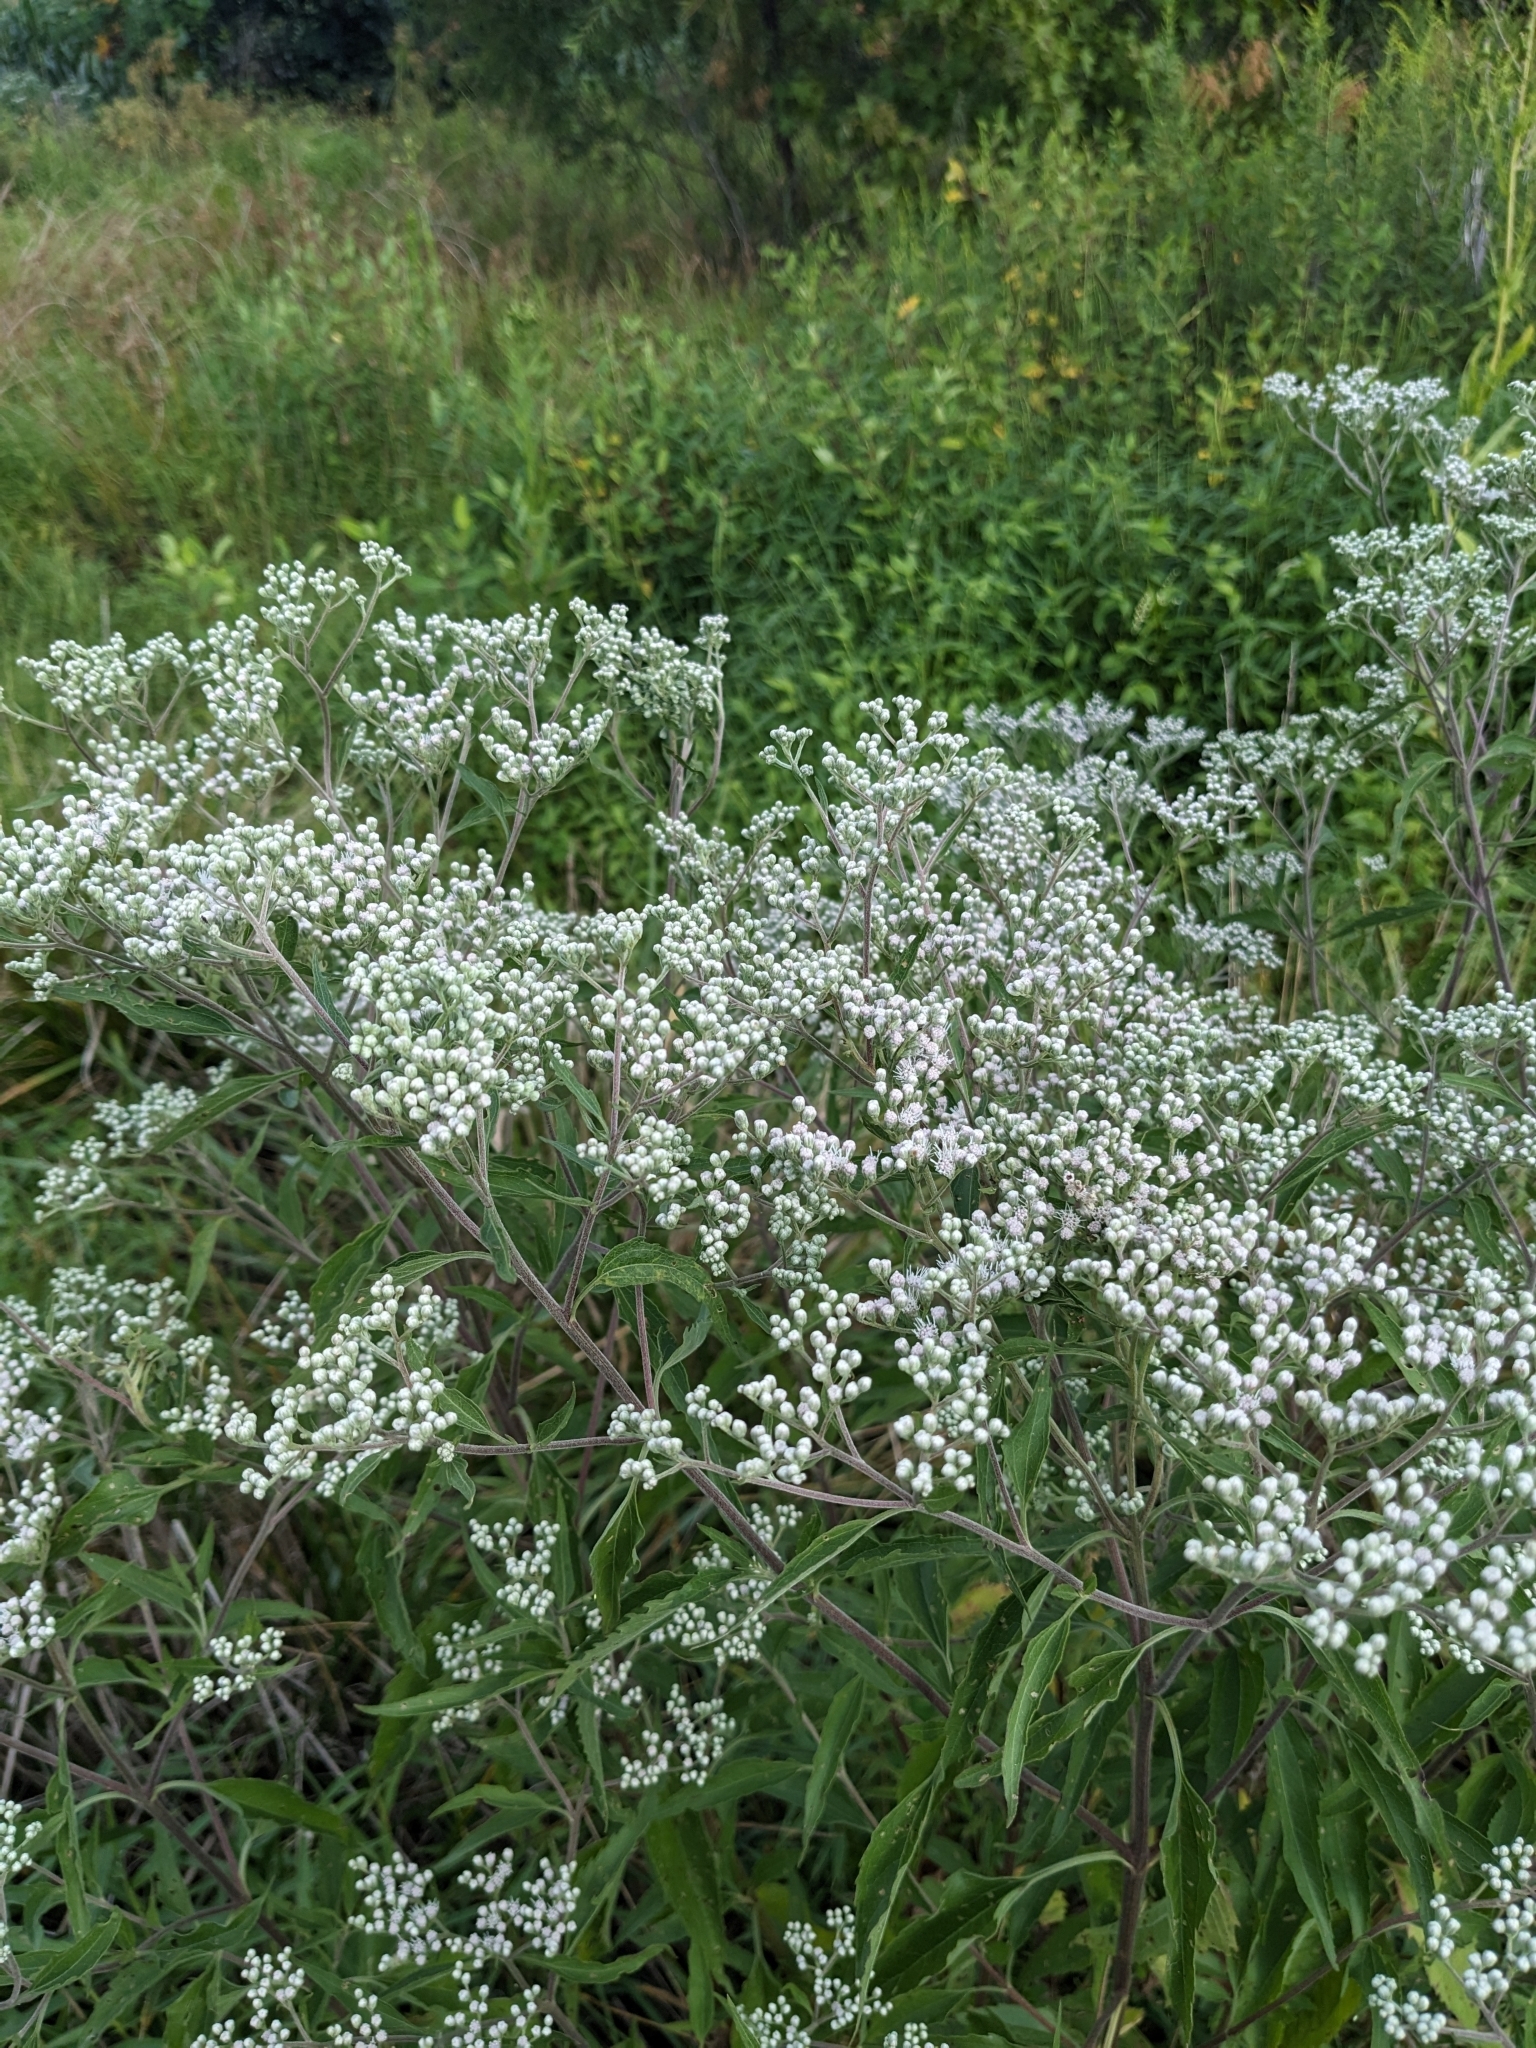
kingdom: Plantae
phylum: Tracheophyta
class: Magnoliopsida
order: Asterales
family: Asteraceae
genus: Eupatorium
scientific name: Eupatorium serotinum
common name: Late boneset
